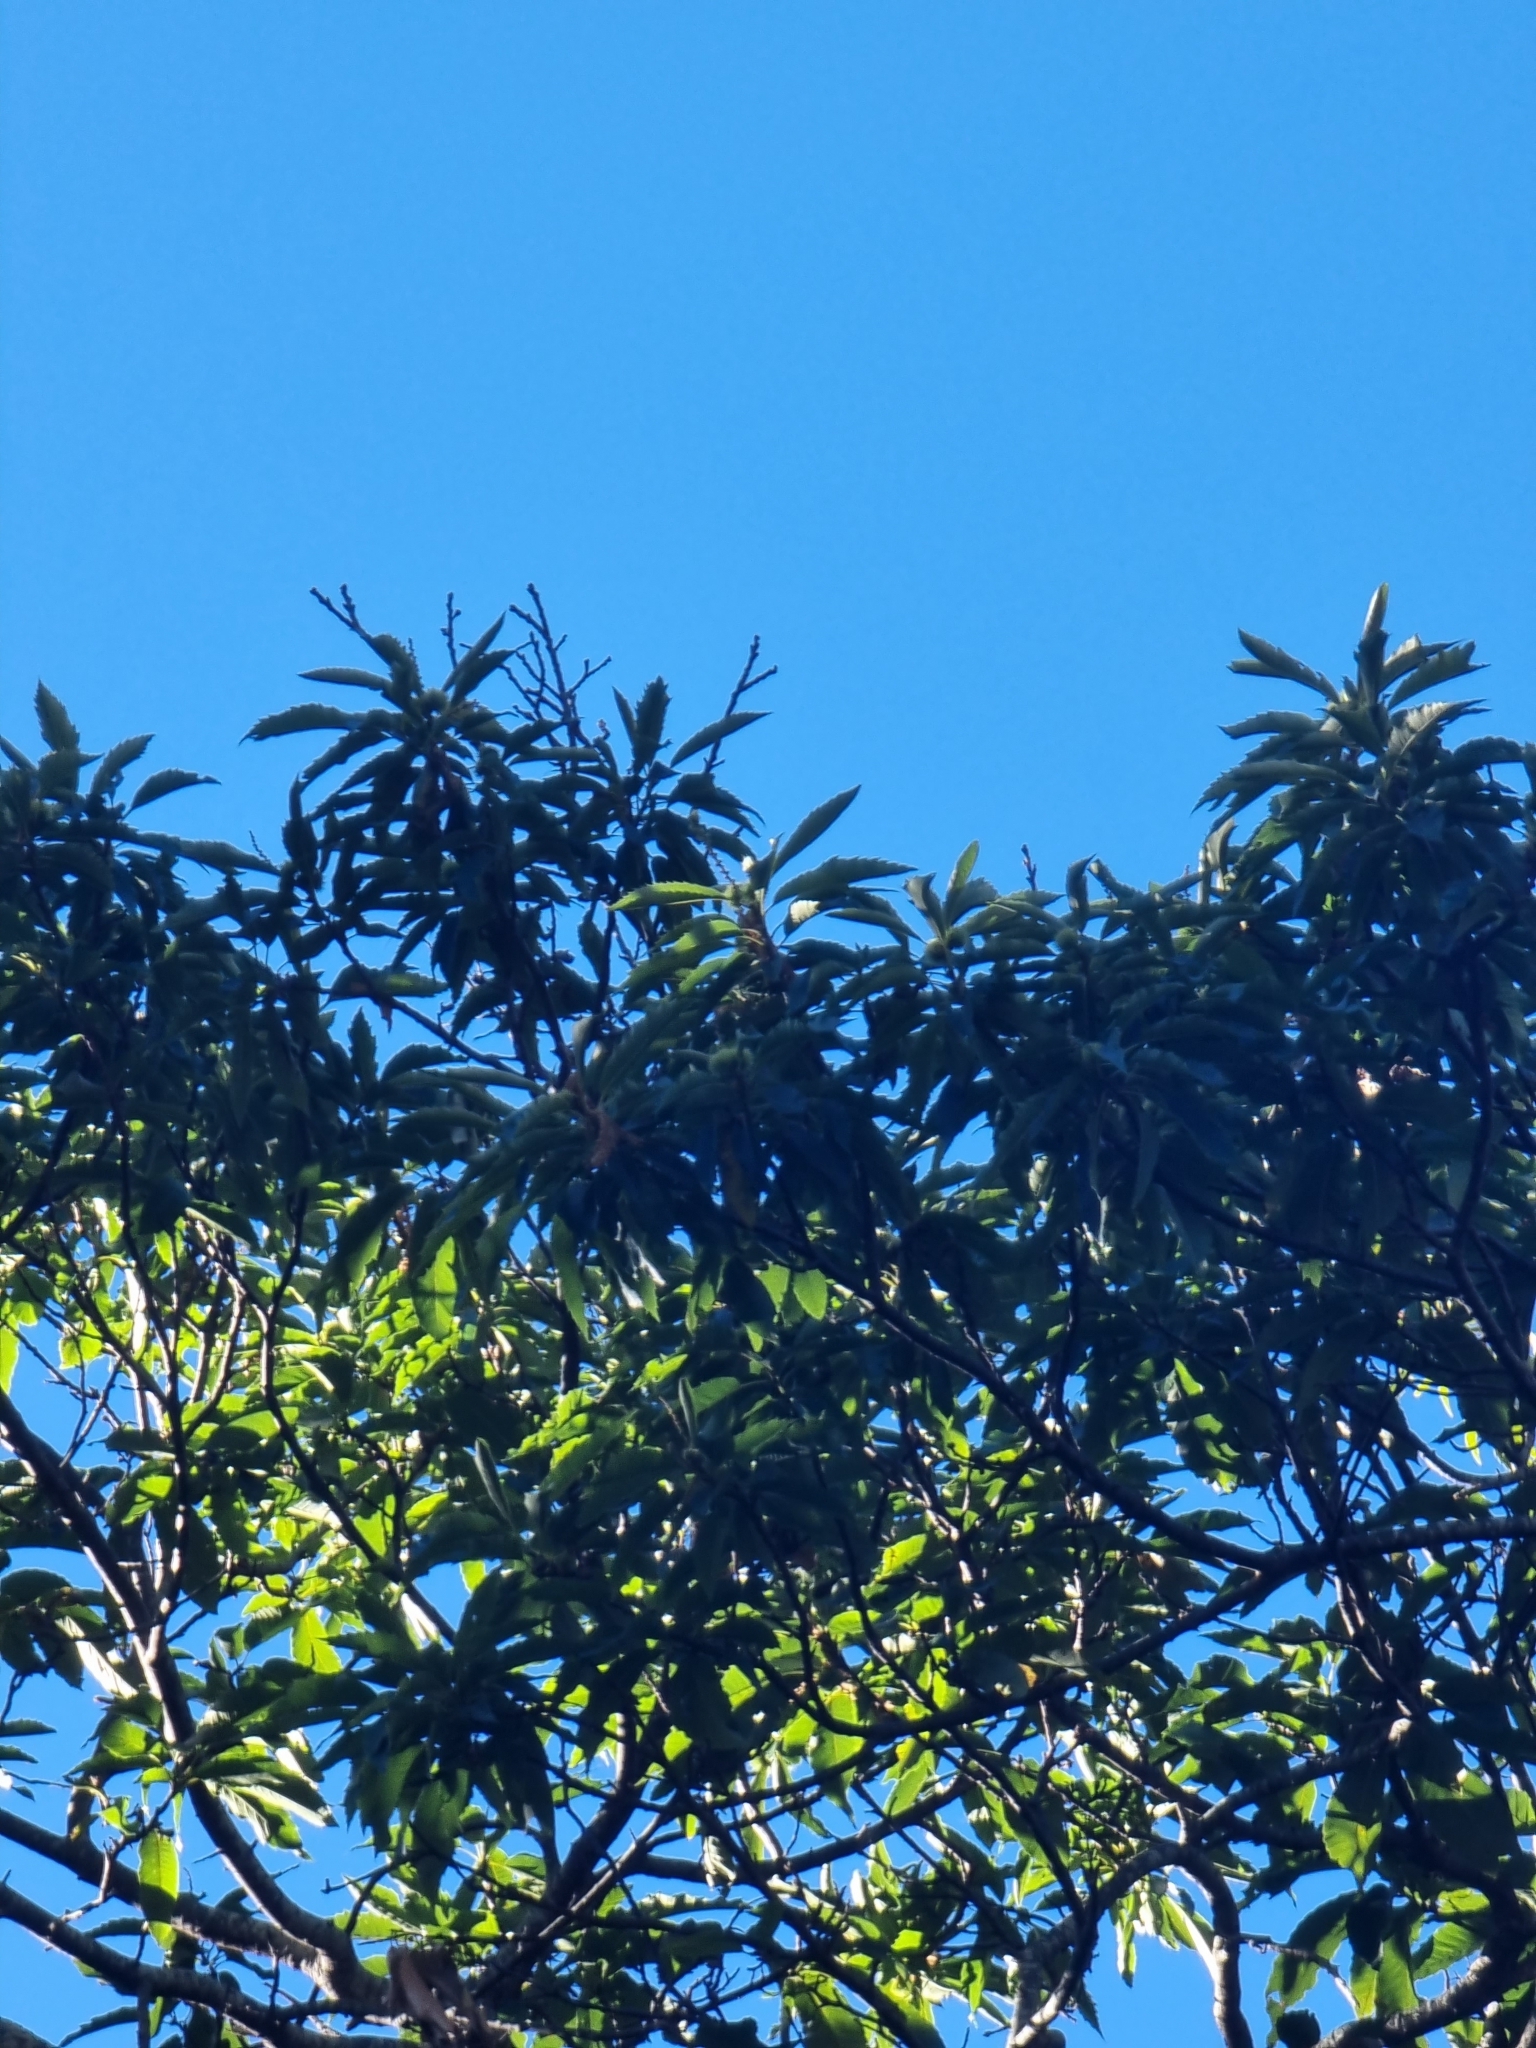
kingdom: Plantae
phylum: Tracheophyta
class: Magnoliopsida
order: Fagales
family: Fagaceae
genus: Castanea
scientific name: Castanea sativa
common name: Sweet chestnut
